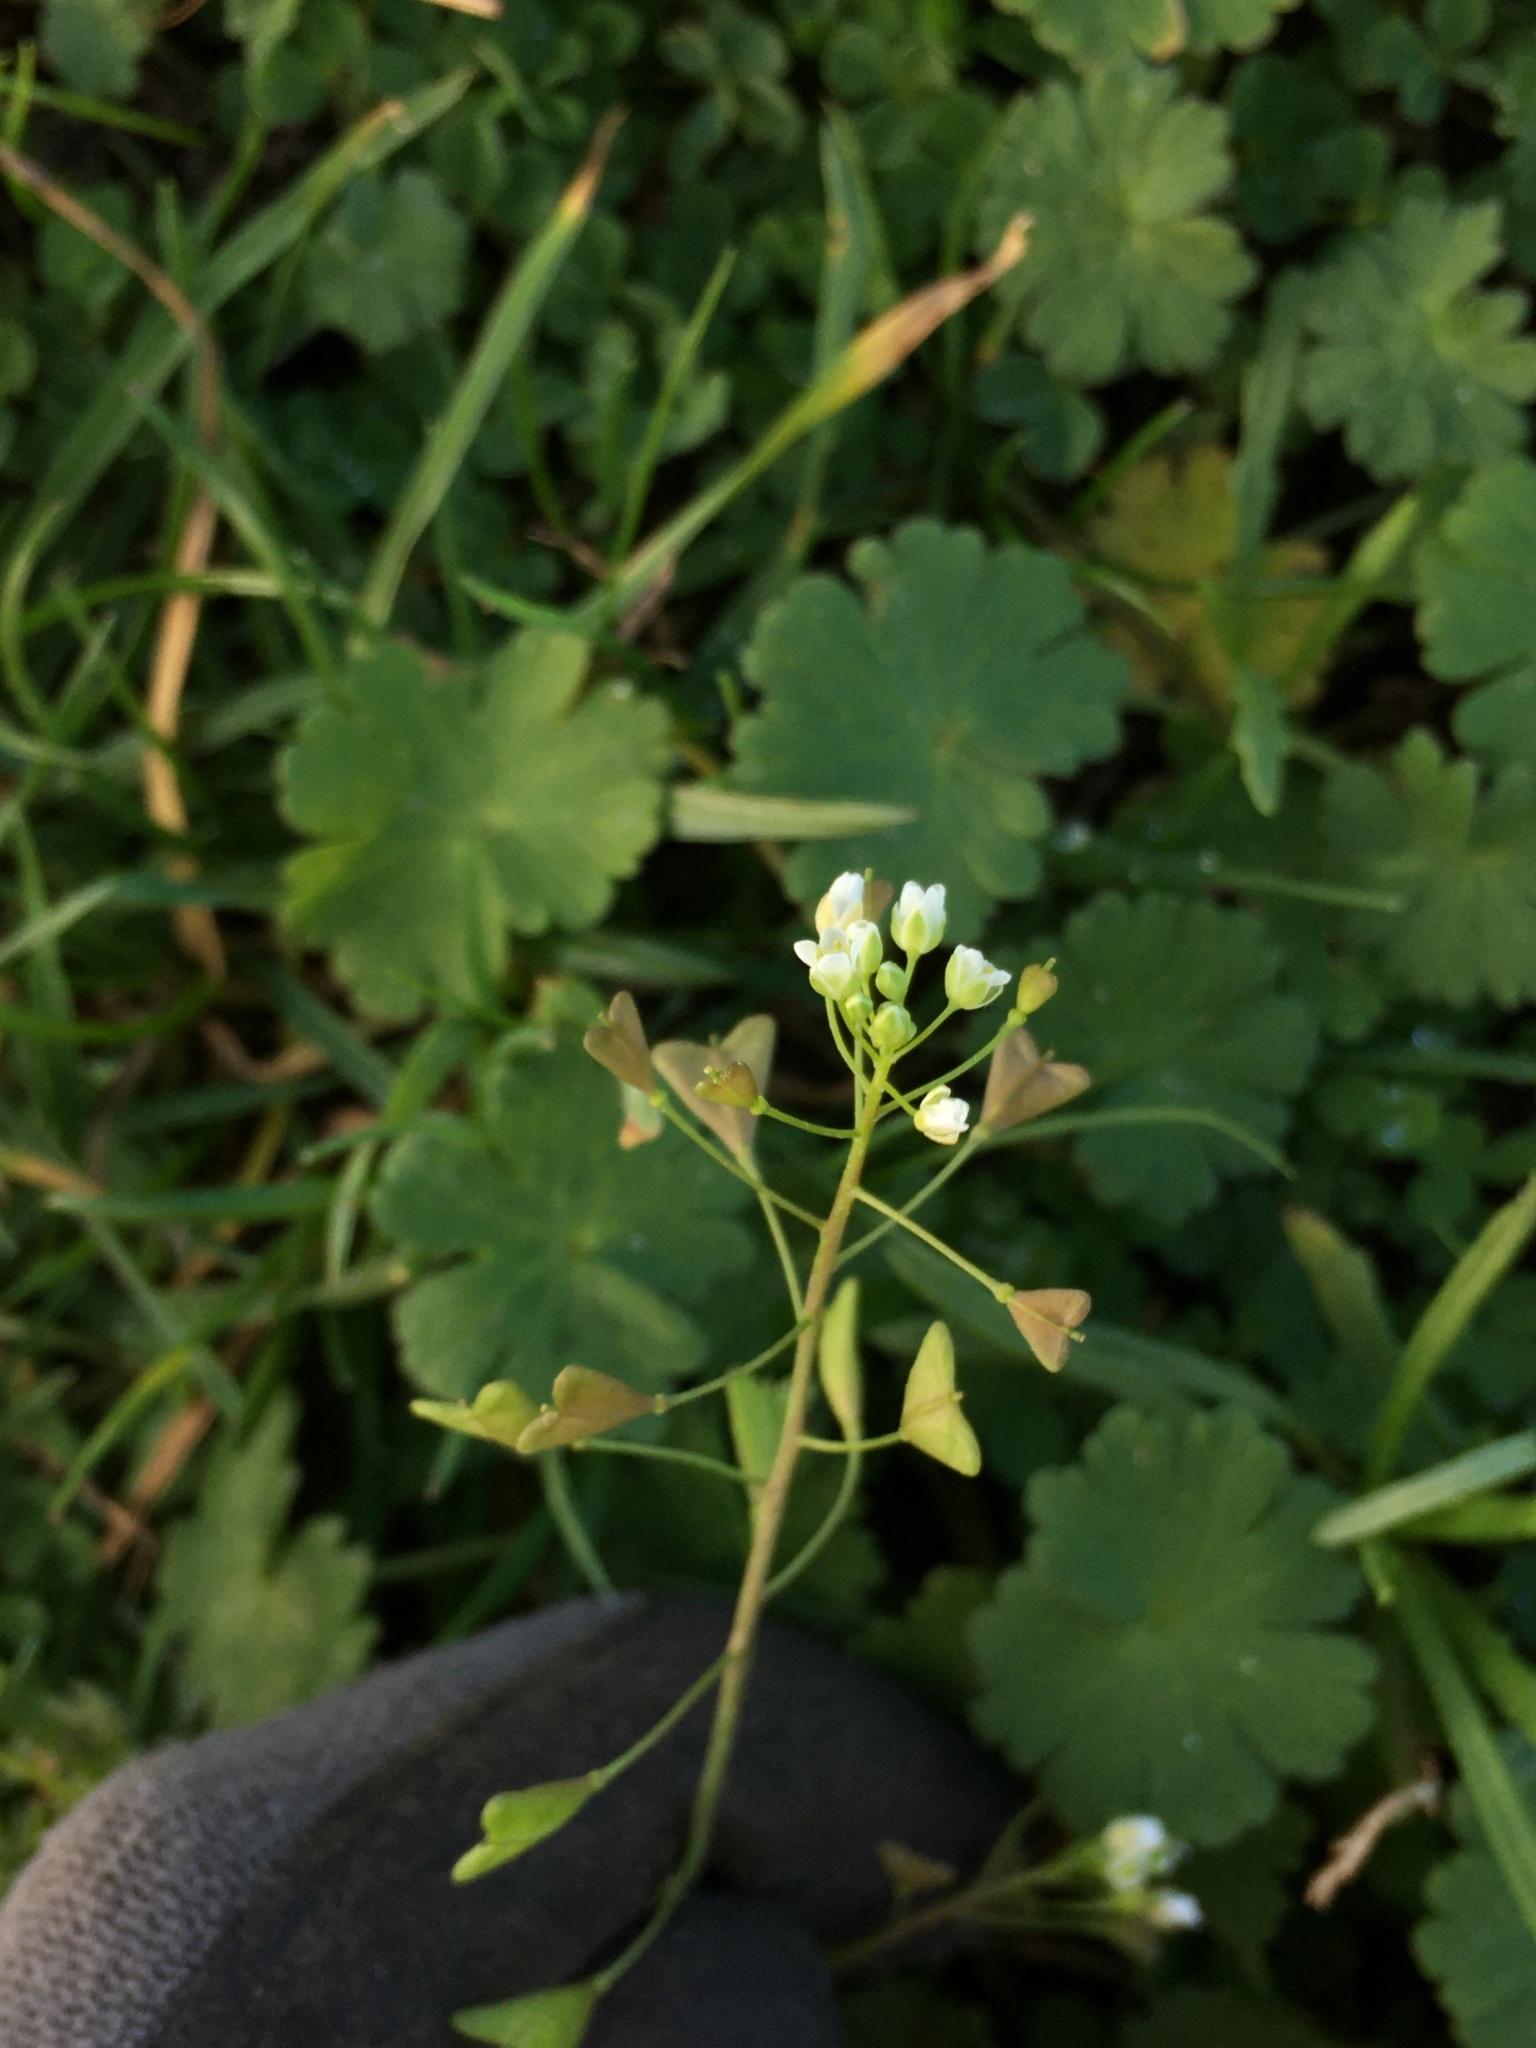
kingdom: Plantae
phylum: Tracheophyta
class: Magnoliopsida
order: Brassicales
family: Brassicaceae
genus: Capsella
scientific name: Capsella bursa-pastoris
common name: Shepherd's purse
